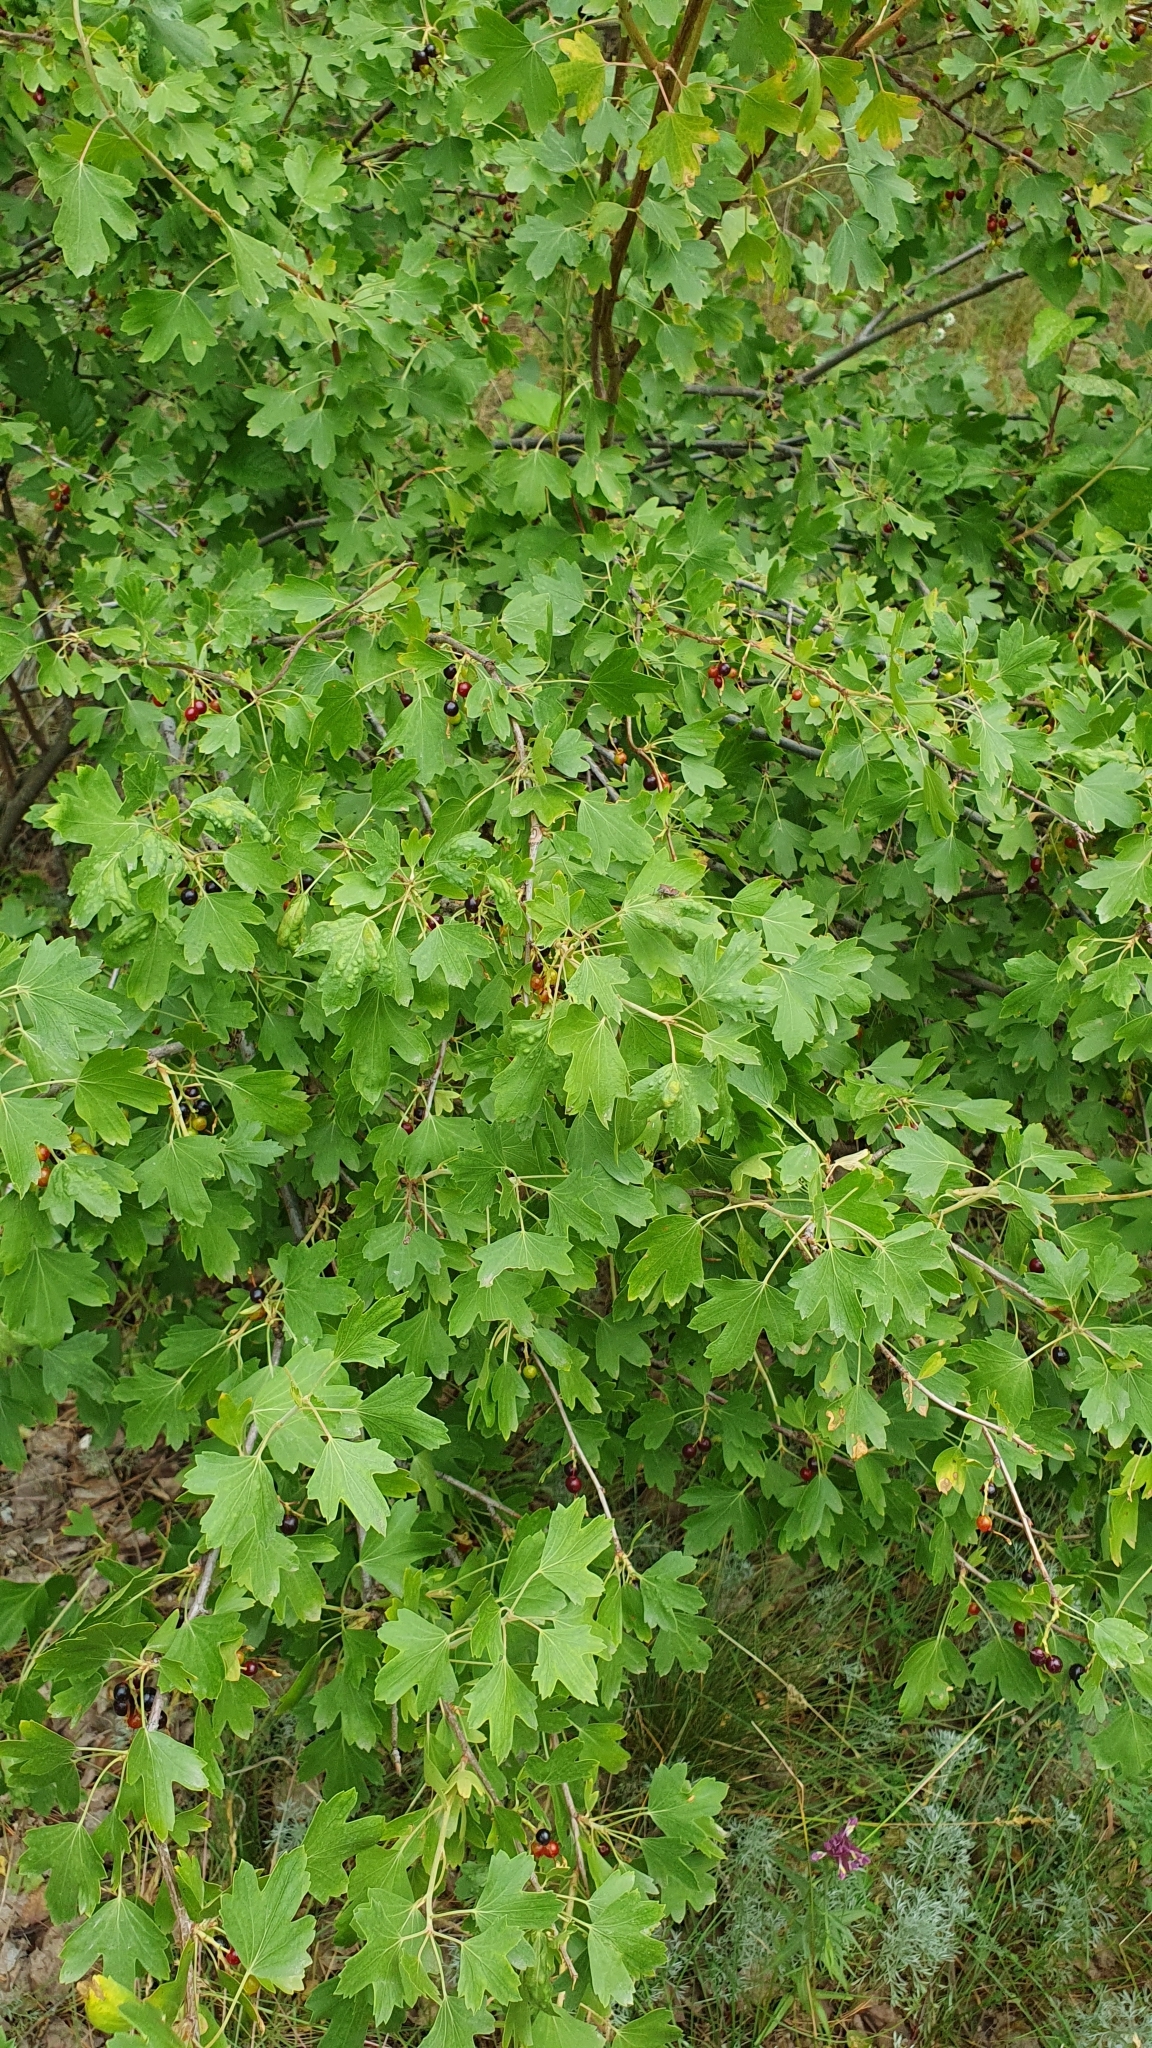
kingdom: Plantae
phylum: Tracheophyta
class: Magnoliopsida
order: Saxifragales
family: Grossulariaceae
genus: Ribes
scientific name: Ribes aureum
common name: Golden currant
